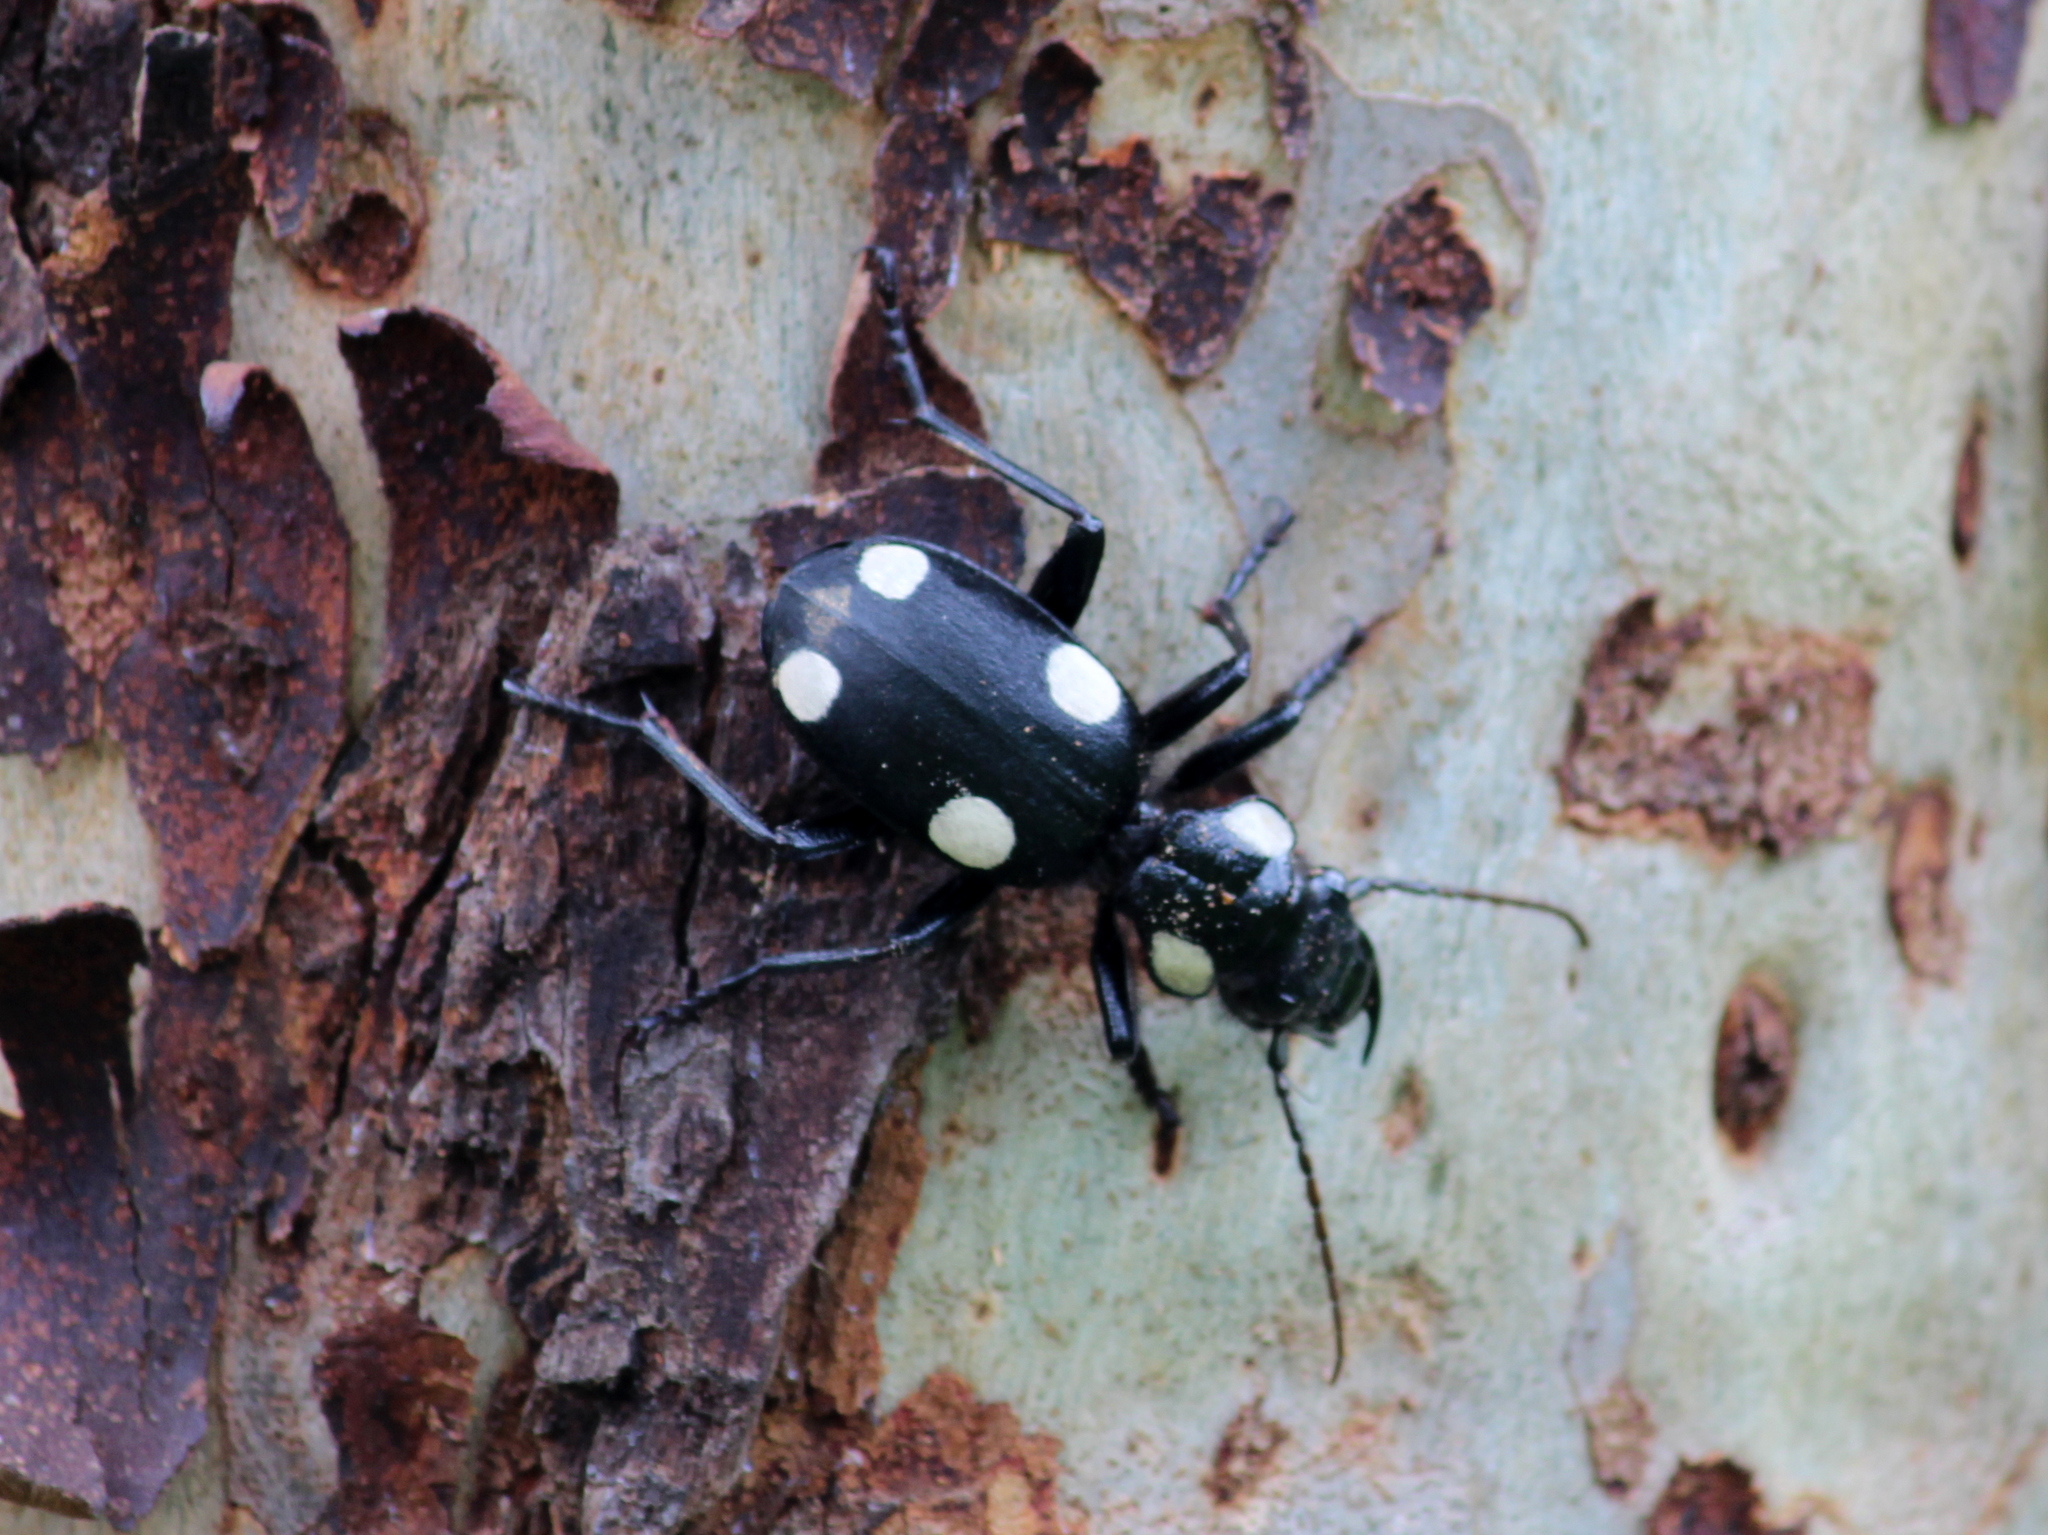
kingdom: Animalia
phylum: Arthropoda
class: Insecta
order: Coleoptera
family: Carabidae
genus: Anthia
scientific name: Anthia sexguttata
